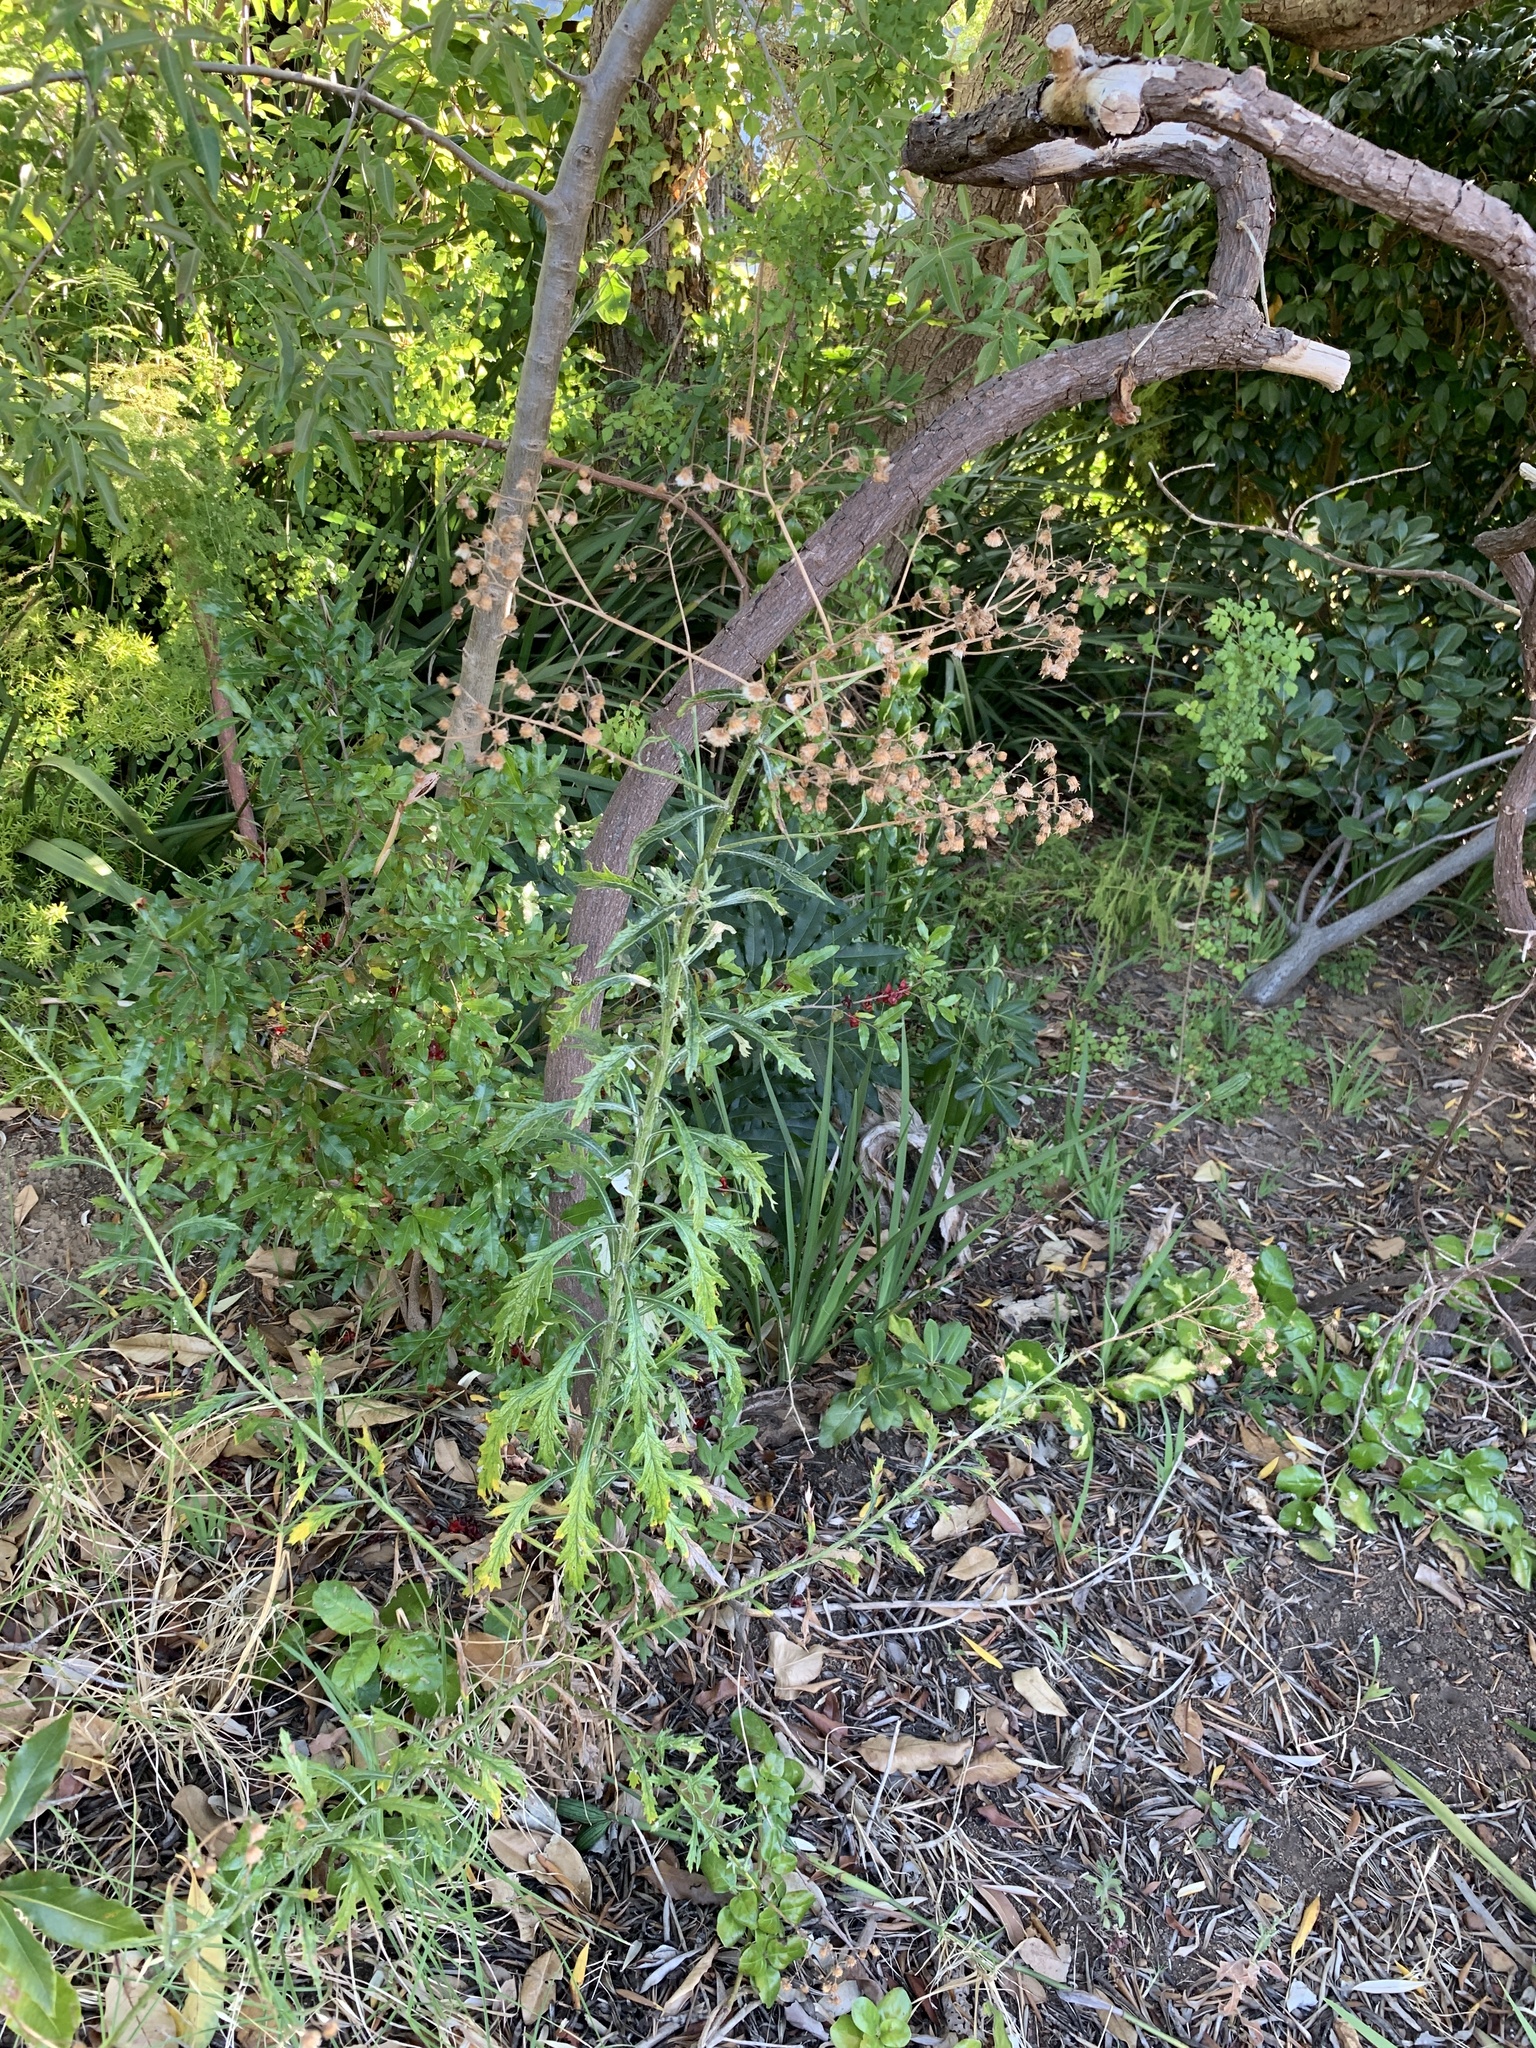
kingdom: Plantae
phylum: Tracheophyta
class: Magnoliopsida
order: Asterales
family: Asteraceae
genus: Senecio
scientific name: Senecio pterophorus
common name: Shoddy ragwort
